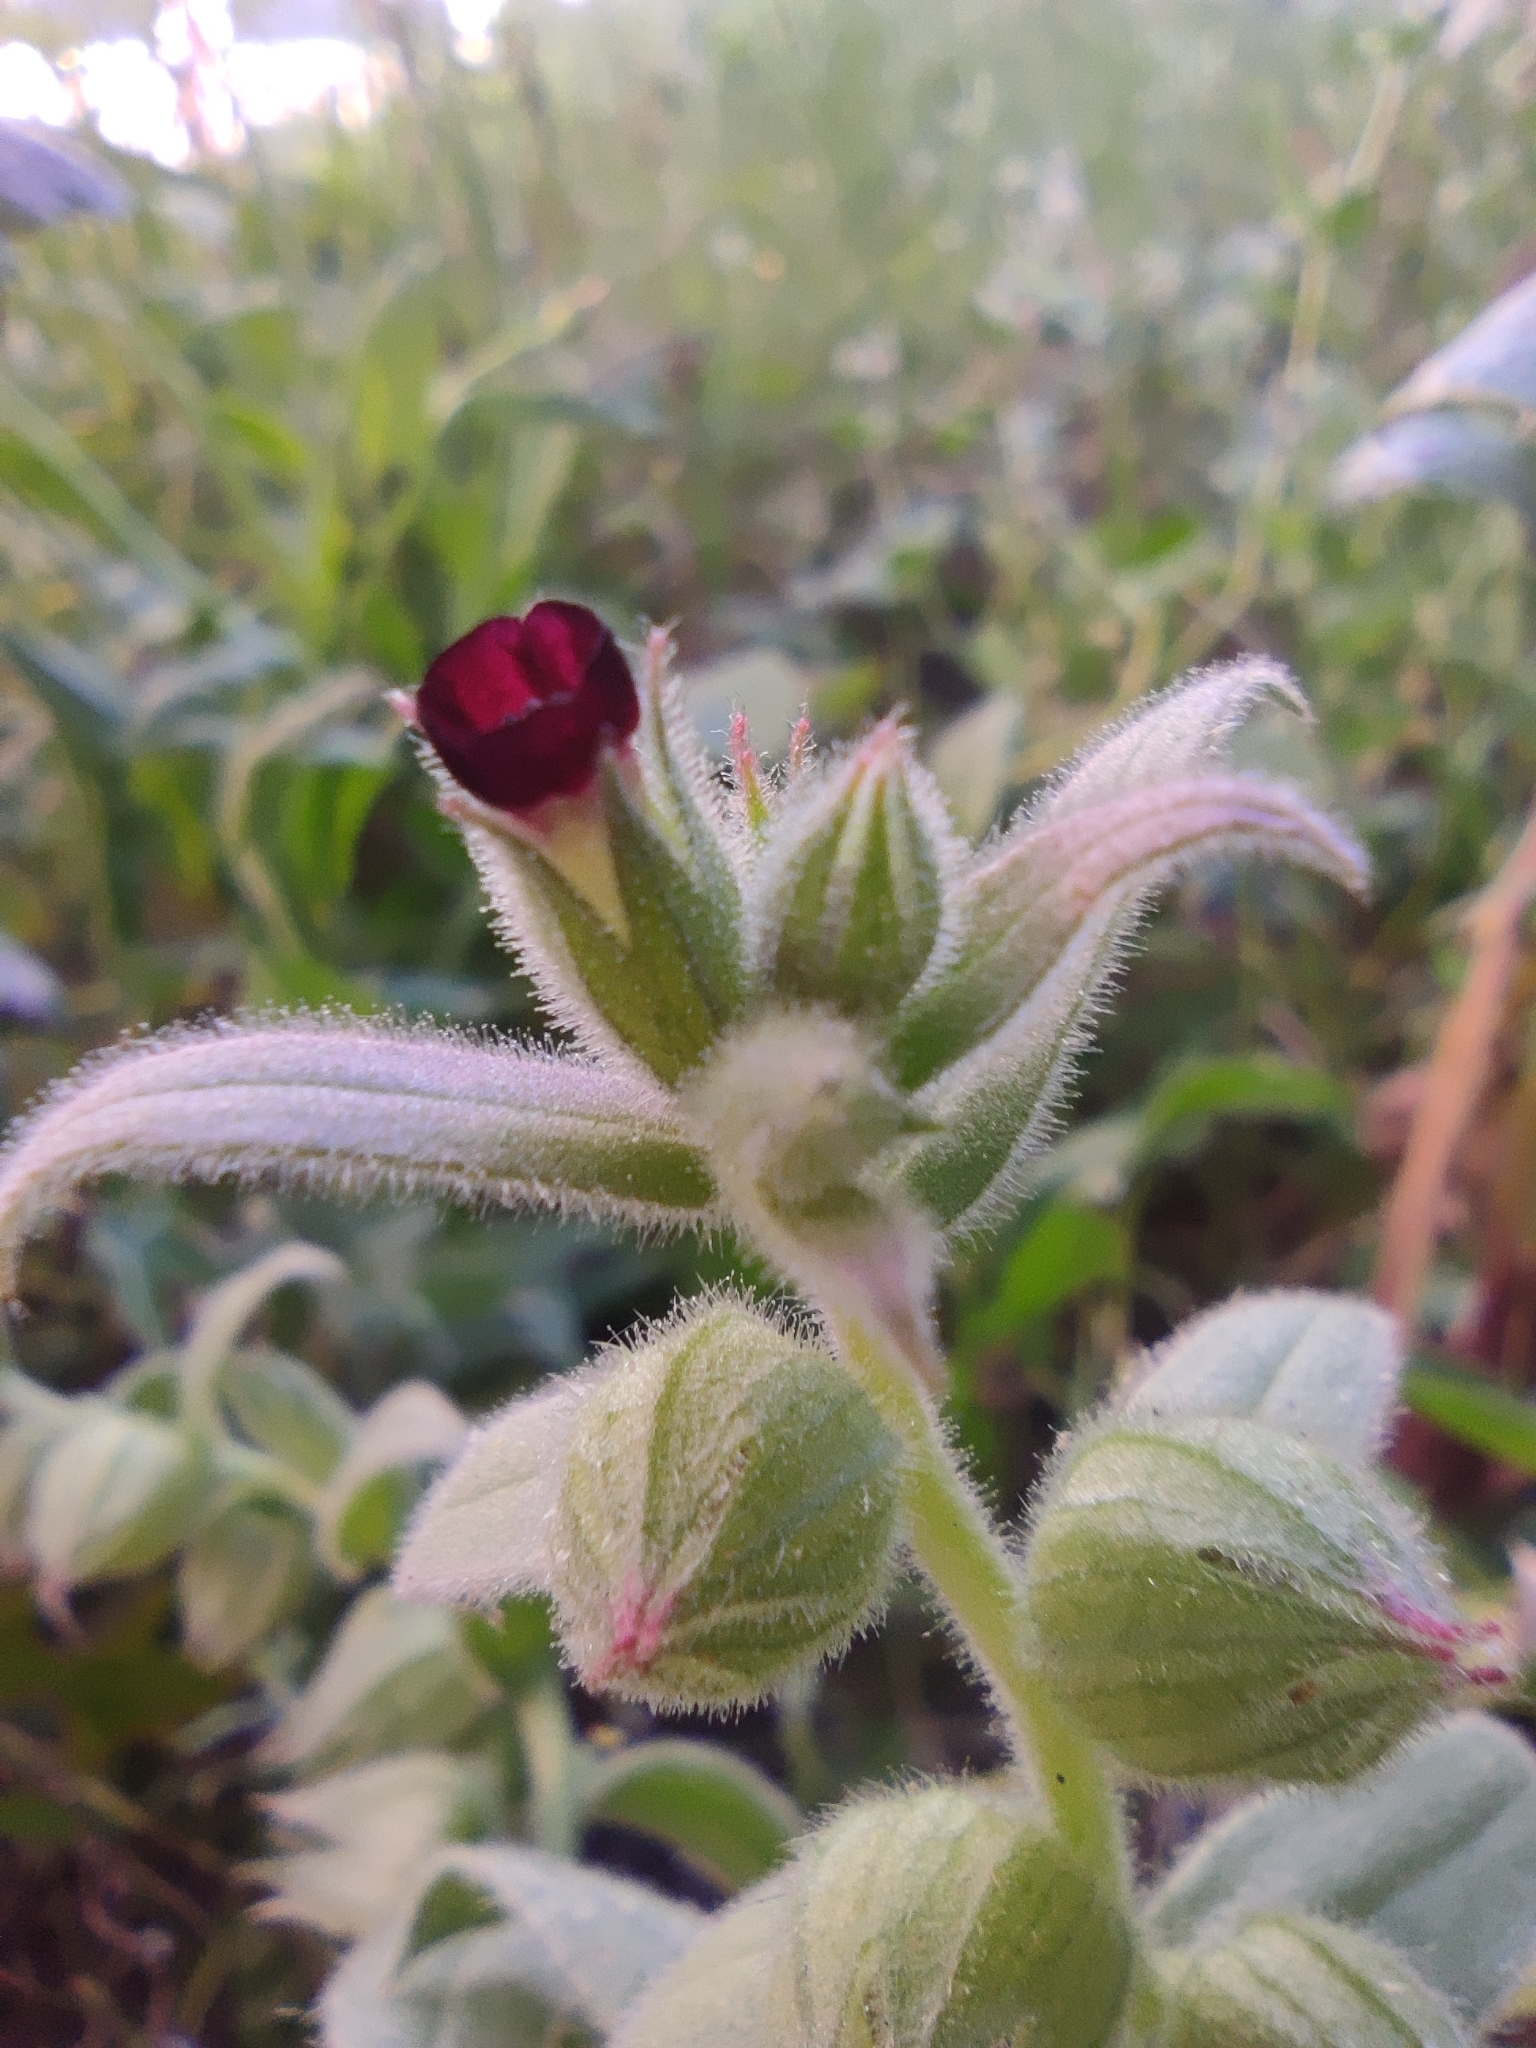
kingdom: Plantae
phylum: Tracheophyta
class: Magnoliopsida
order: Boraginales
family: Boraginaceae
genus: Nonea
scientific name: Nonea vesicaria
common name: Red monkswort
